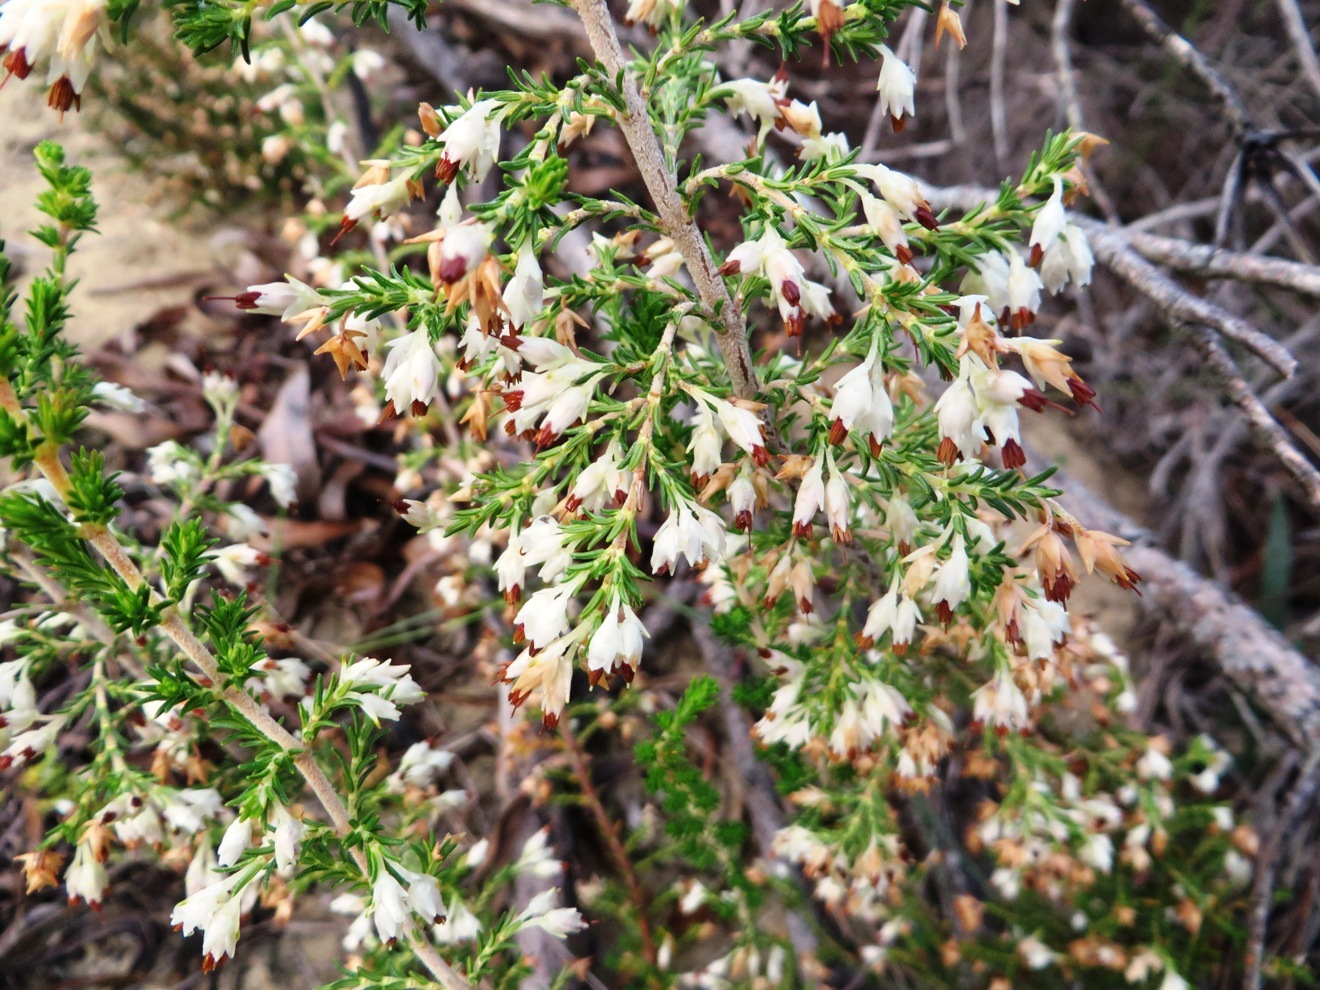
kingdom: Plantae
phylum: Tracheophyta
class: Magnoliopsida
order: Ericales
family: Ericaceae
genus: Erica
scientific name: Erica imbricata
